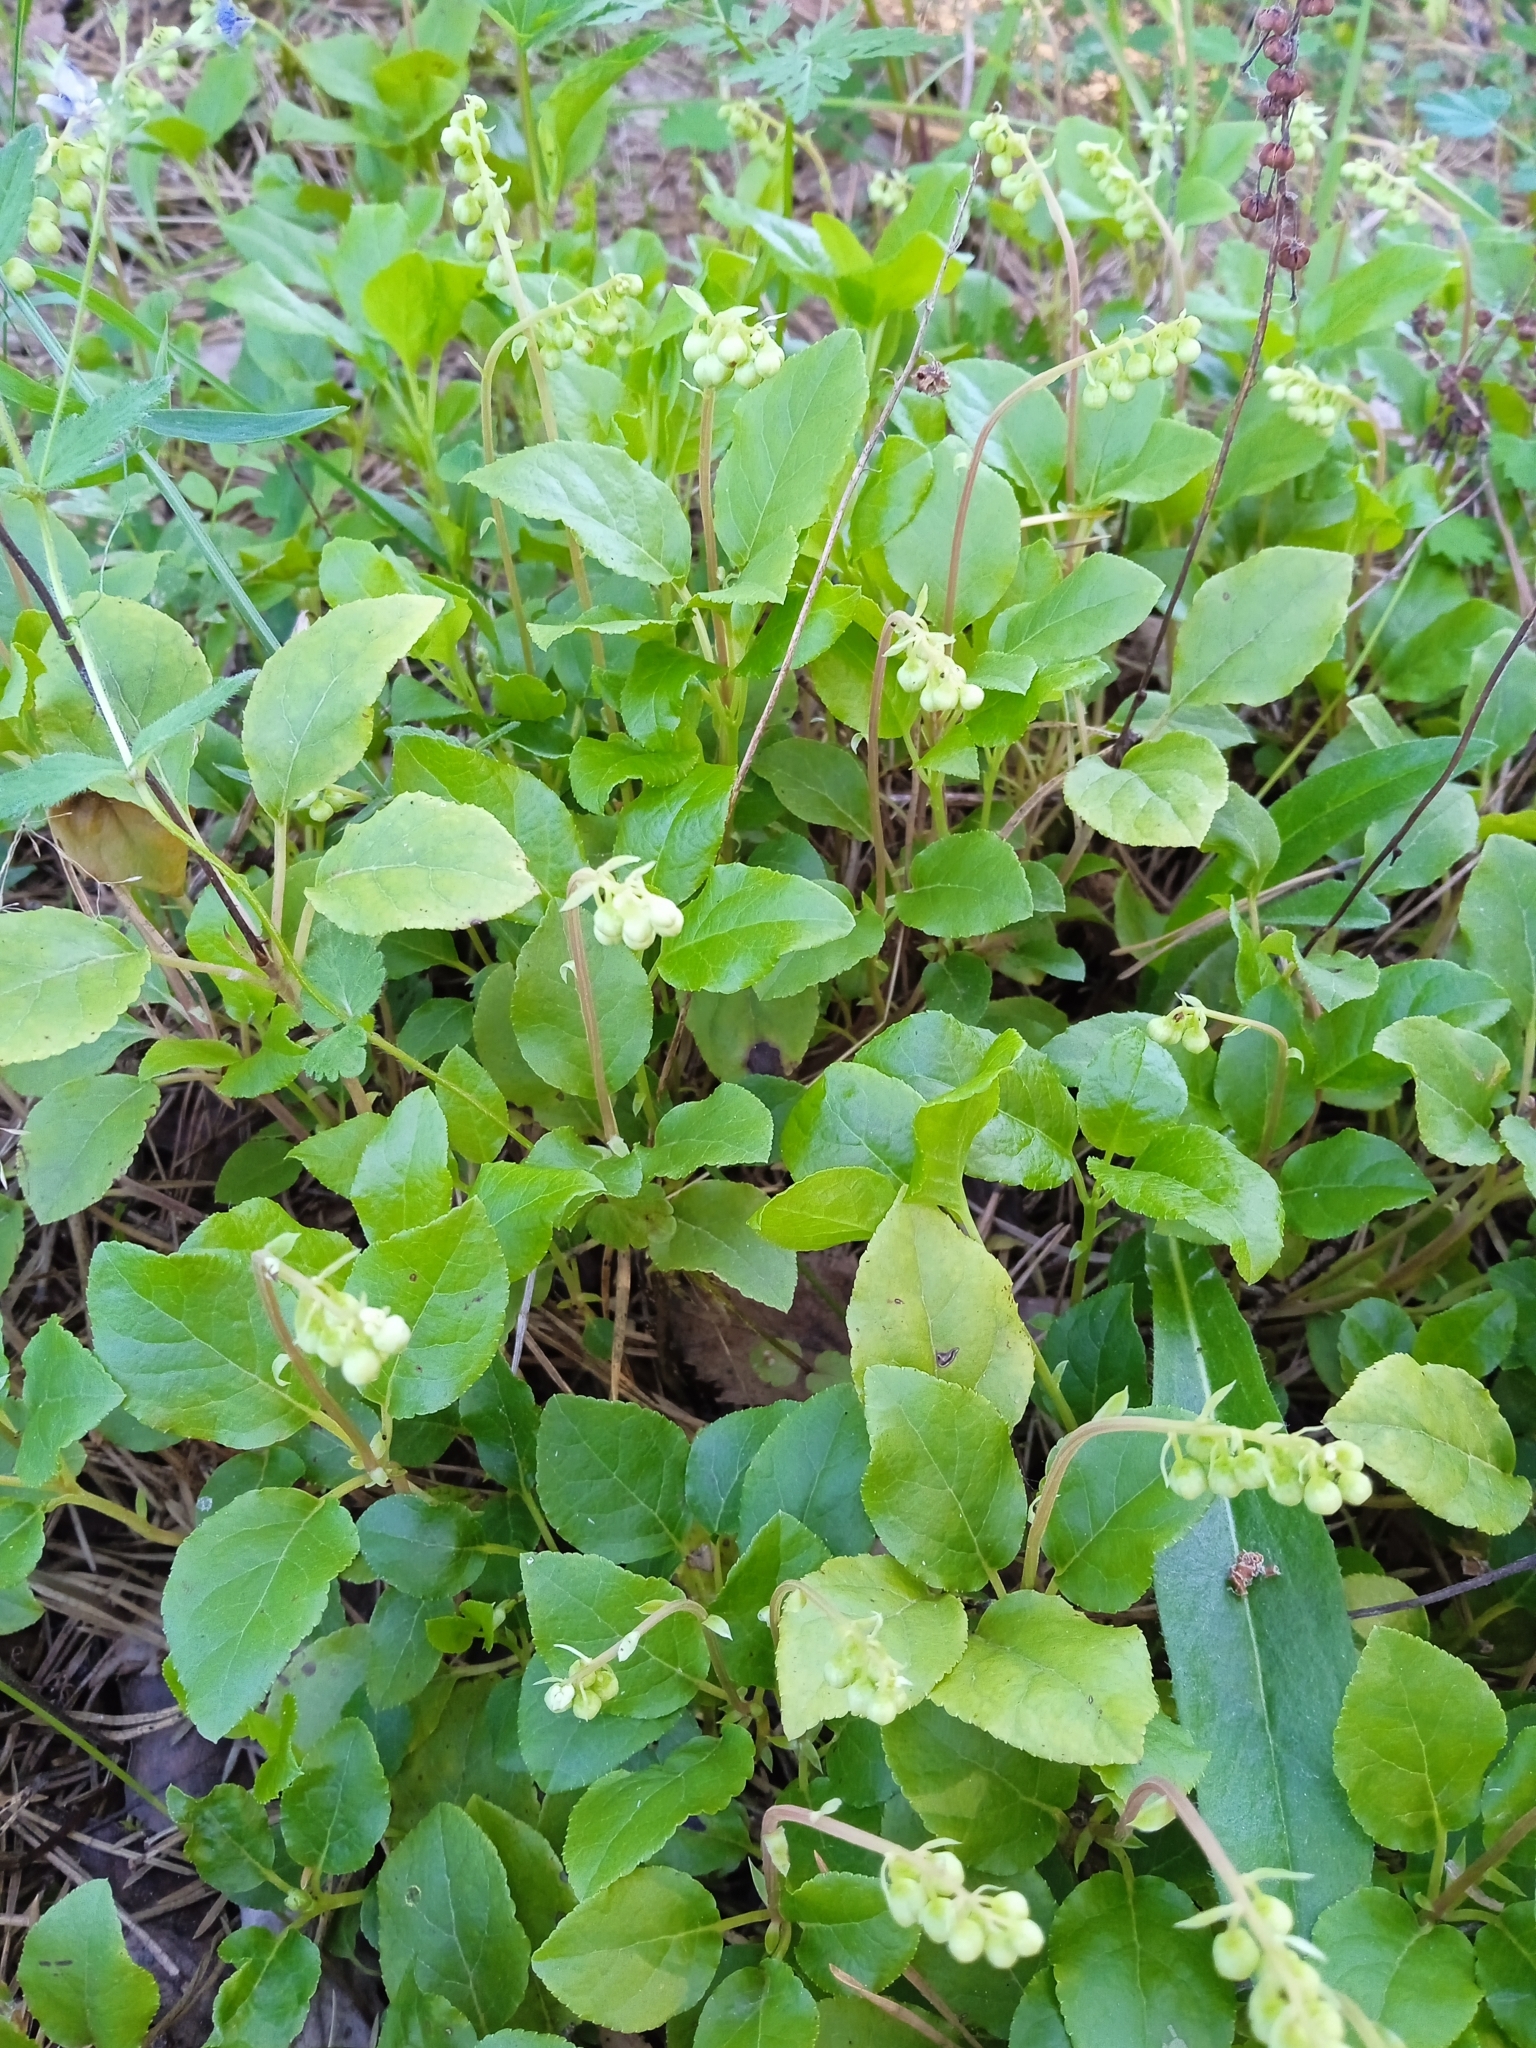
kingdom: Plantae
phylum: Tracheophyta
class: Magnoliopsida
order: Ericales
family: Ericaceae
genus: Orthilia
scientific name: Orthilia secunda
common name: One-sided orthilia
